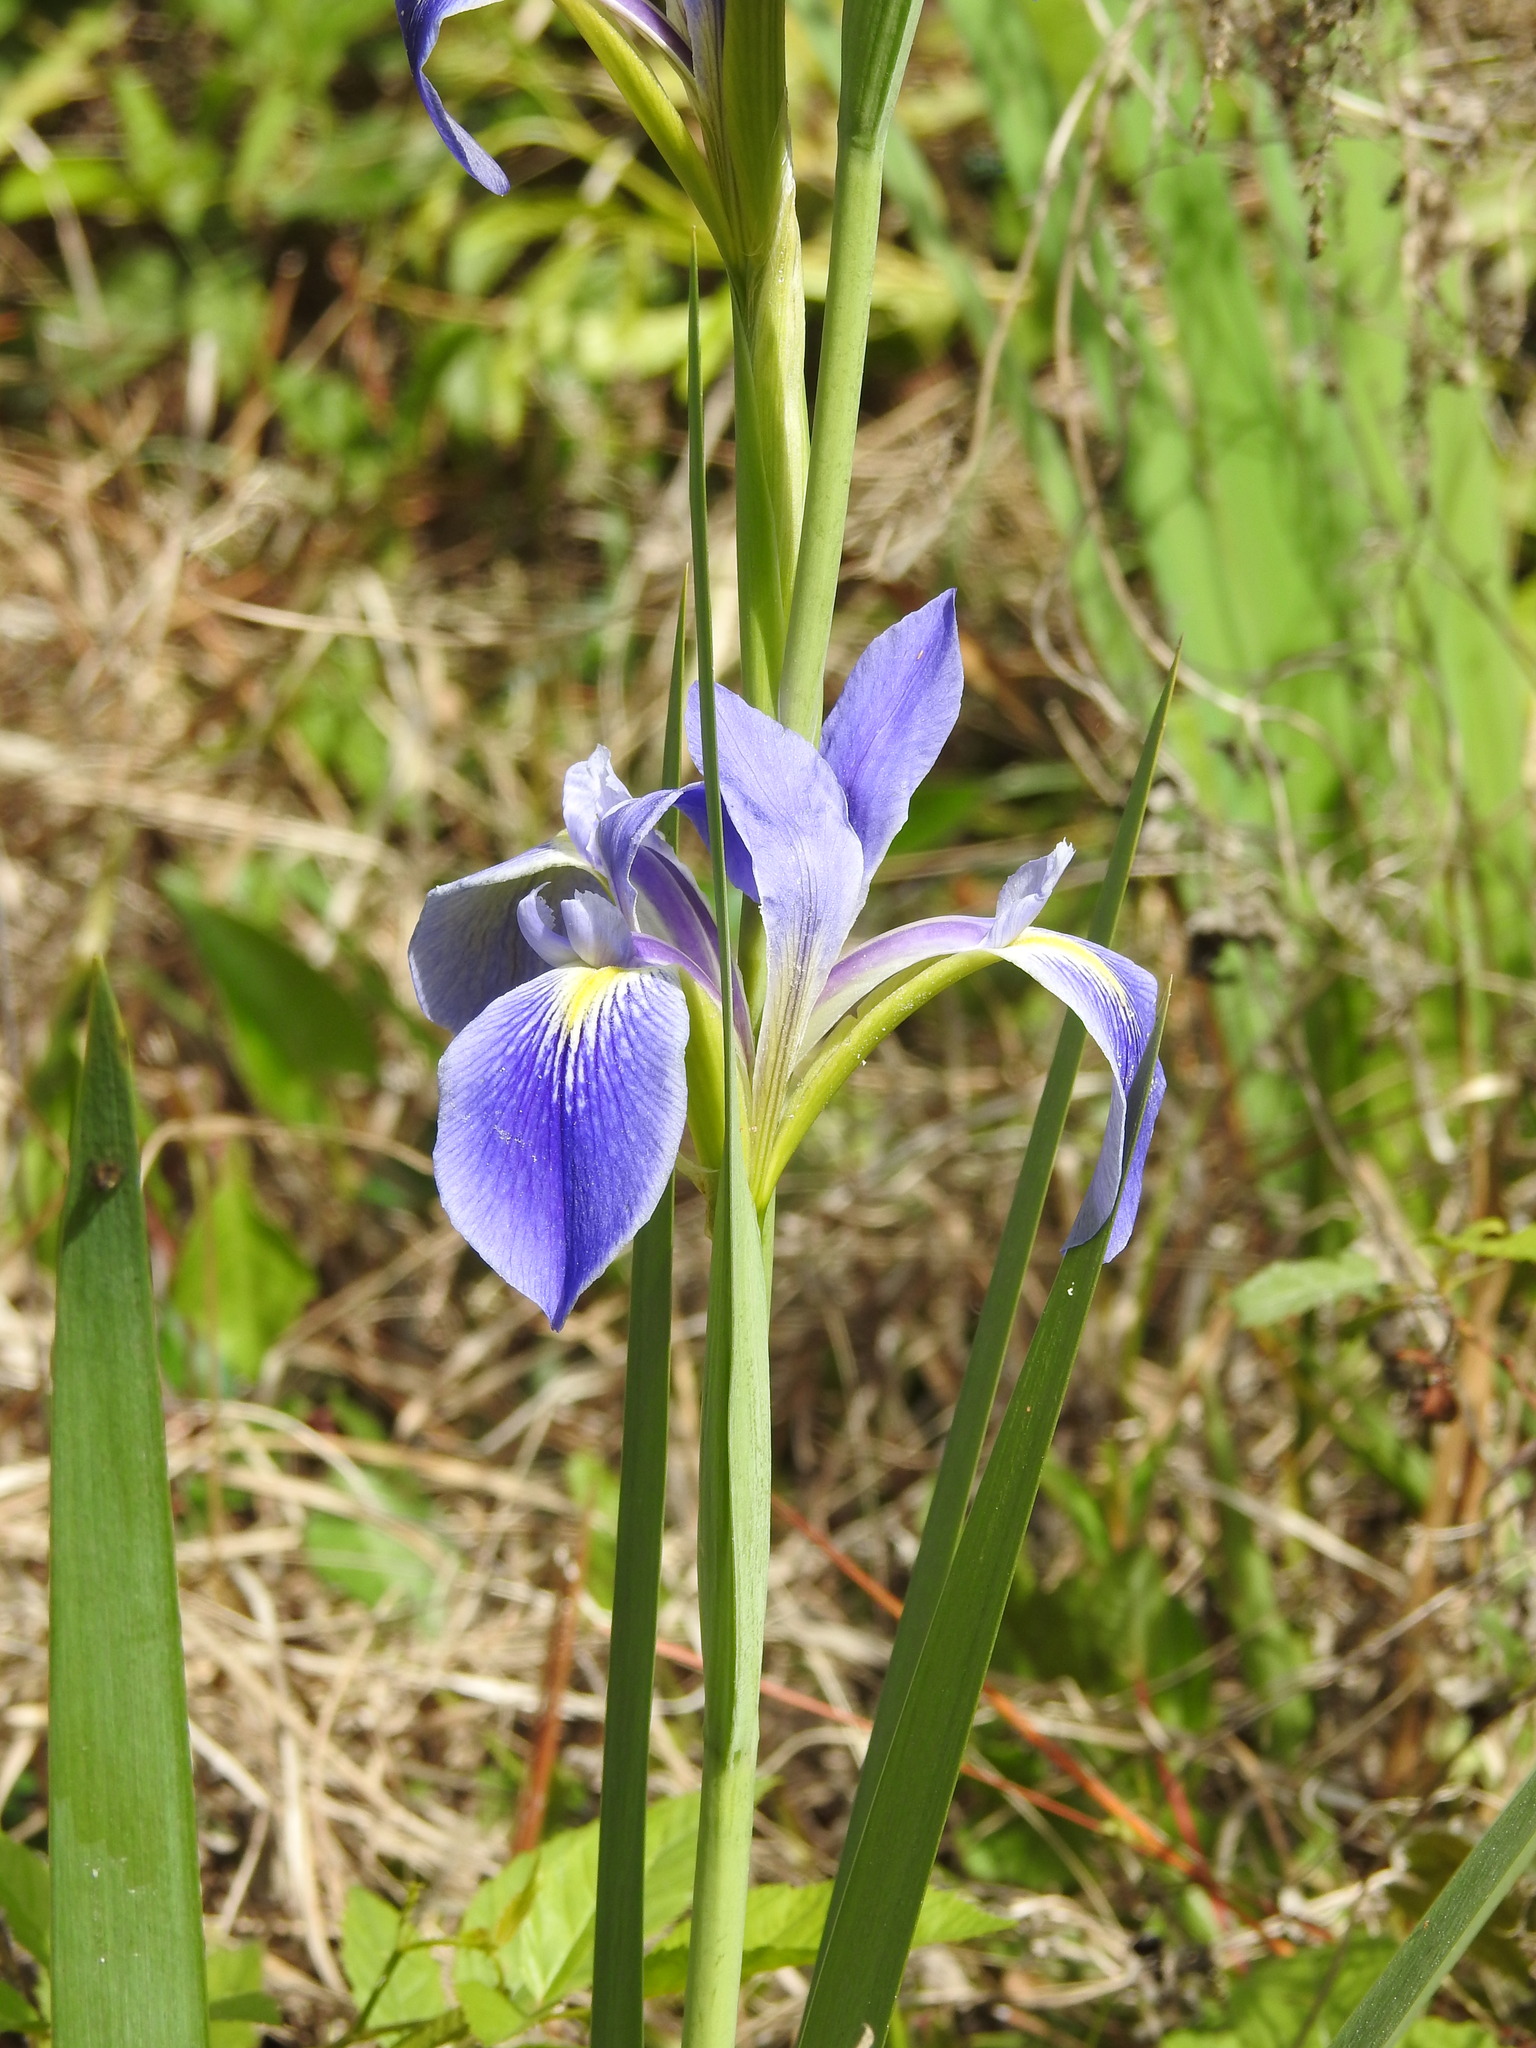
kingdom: Plantae
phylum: Tracheophyta
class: Liliopsida
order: Asparagales
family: Iridaceae
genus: Iris
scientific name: Iris savannarum
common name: Prairie iris
